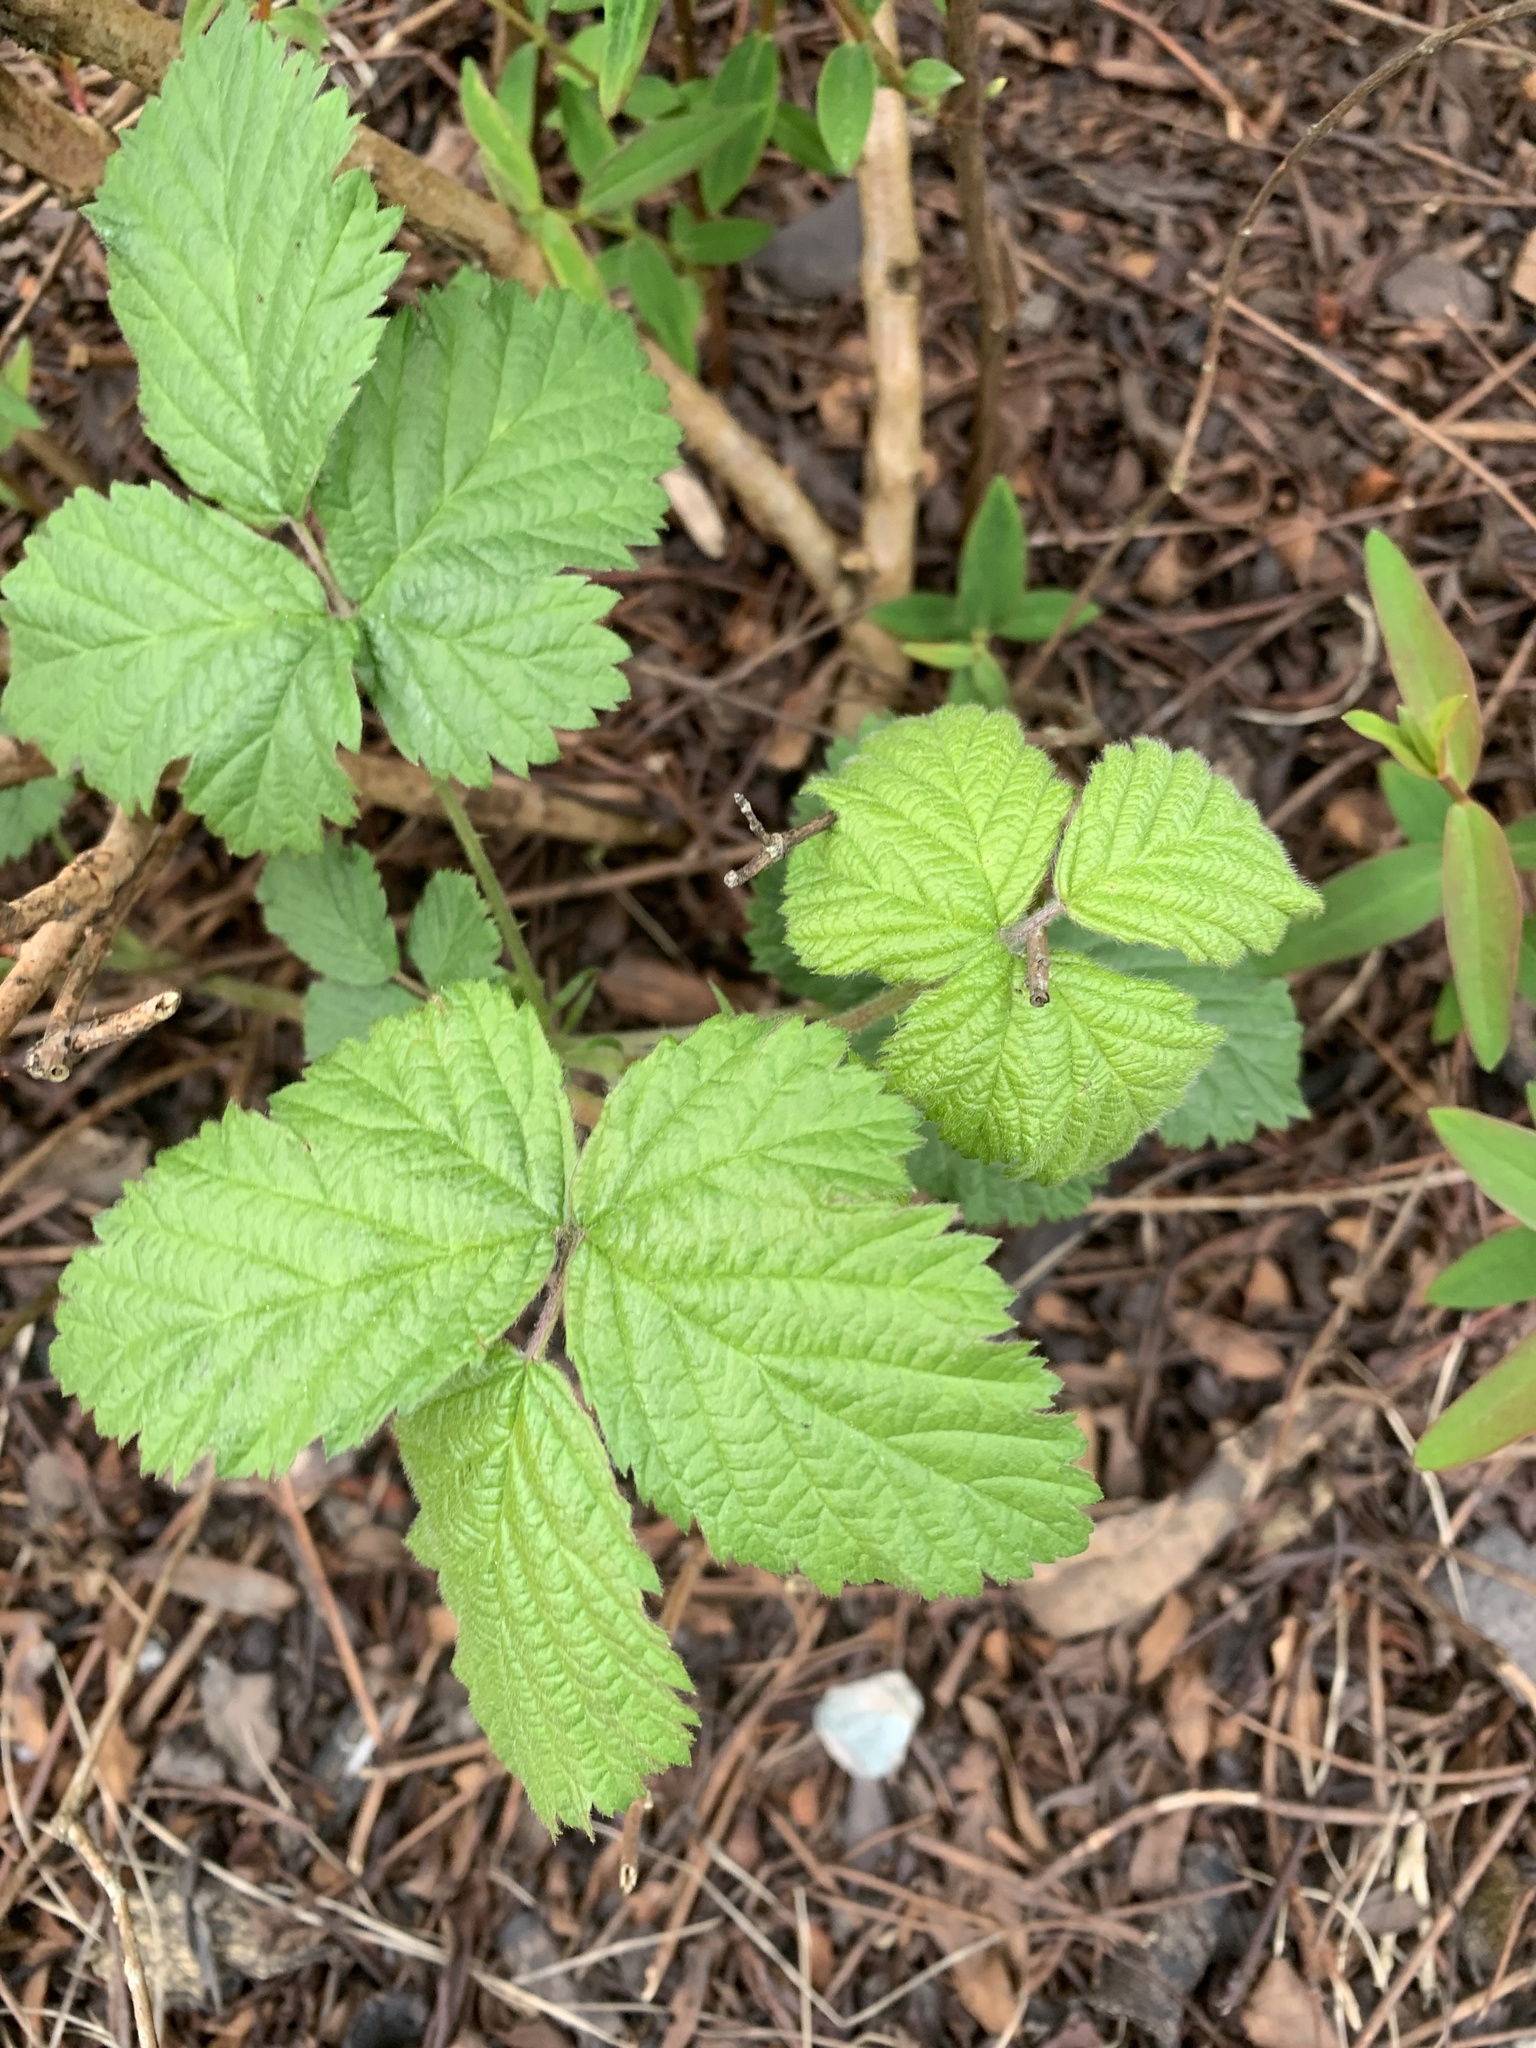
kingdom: Plantae
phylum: Tracheophyta
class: Magnoliopsida
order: Rosales
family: Rosaceae
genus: Rubus
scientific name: Rubus fruticosus
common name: Blackberry, bramble
